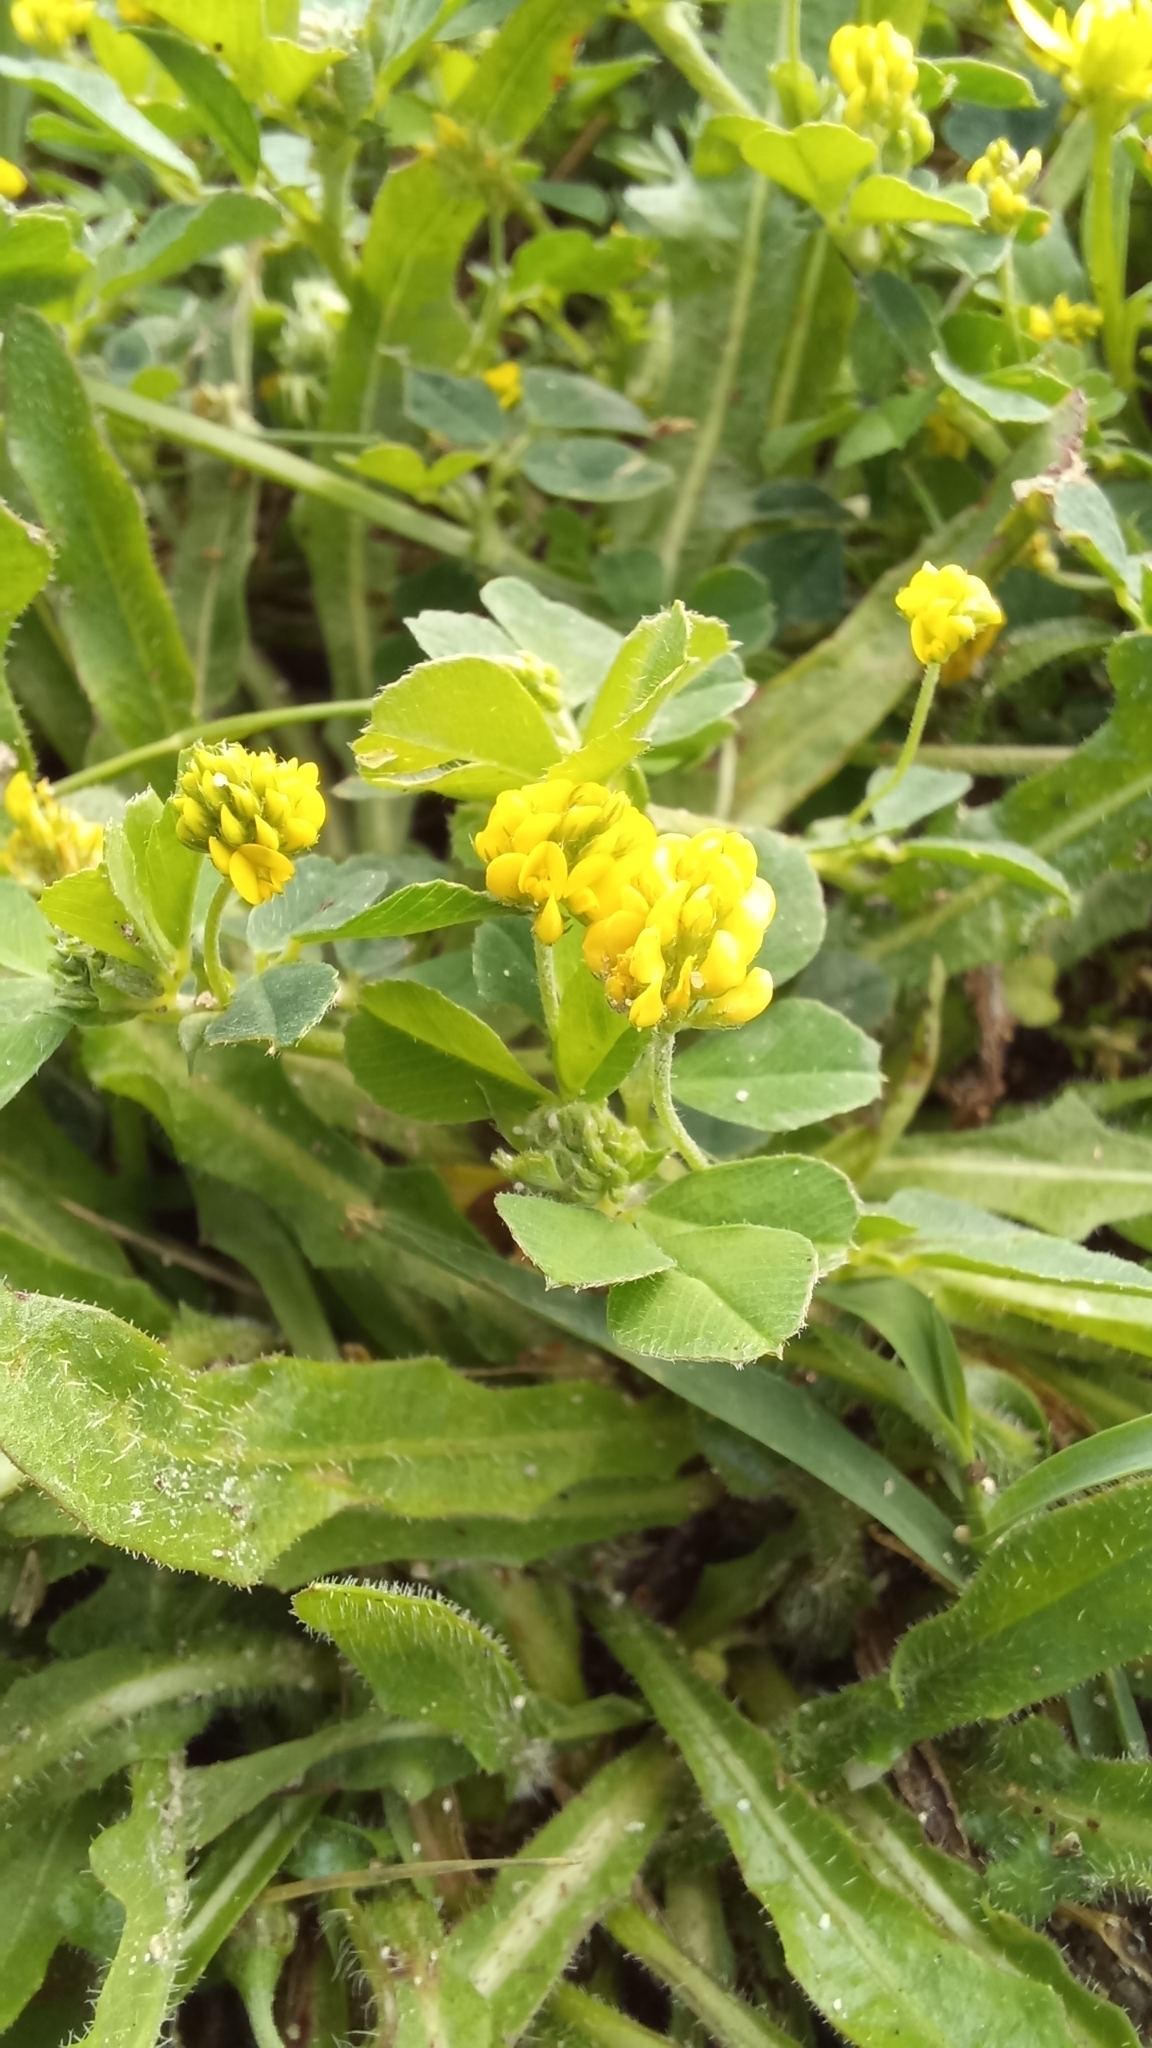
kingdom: Plantae
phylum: Tracheophyta
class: Magnoliopsida
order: Fabales
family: Fabaceae
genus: Medicago
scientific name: Medicago lupulina
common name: Black medick
